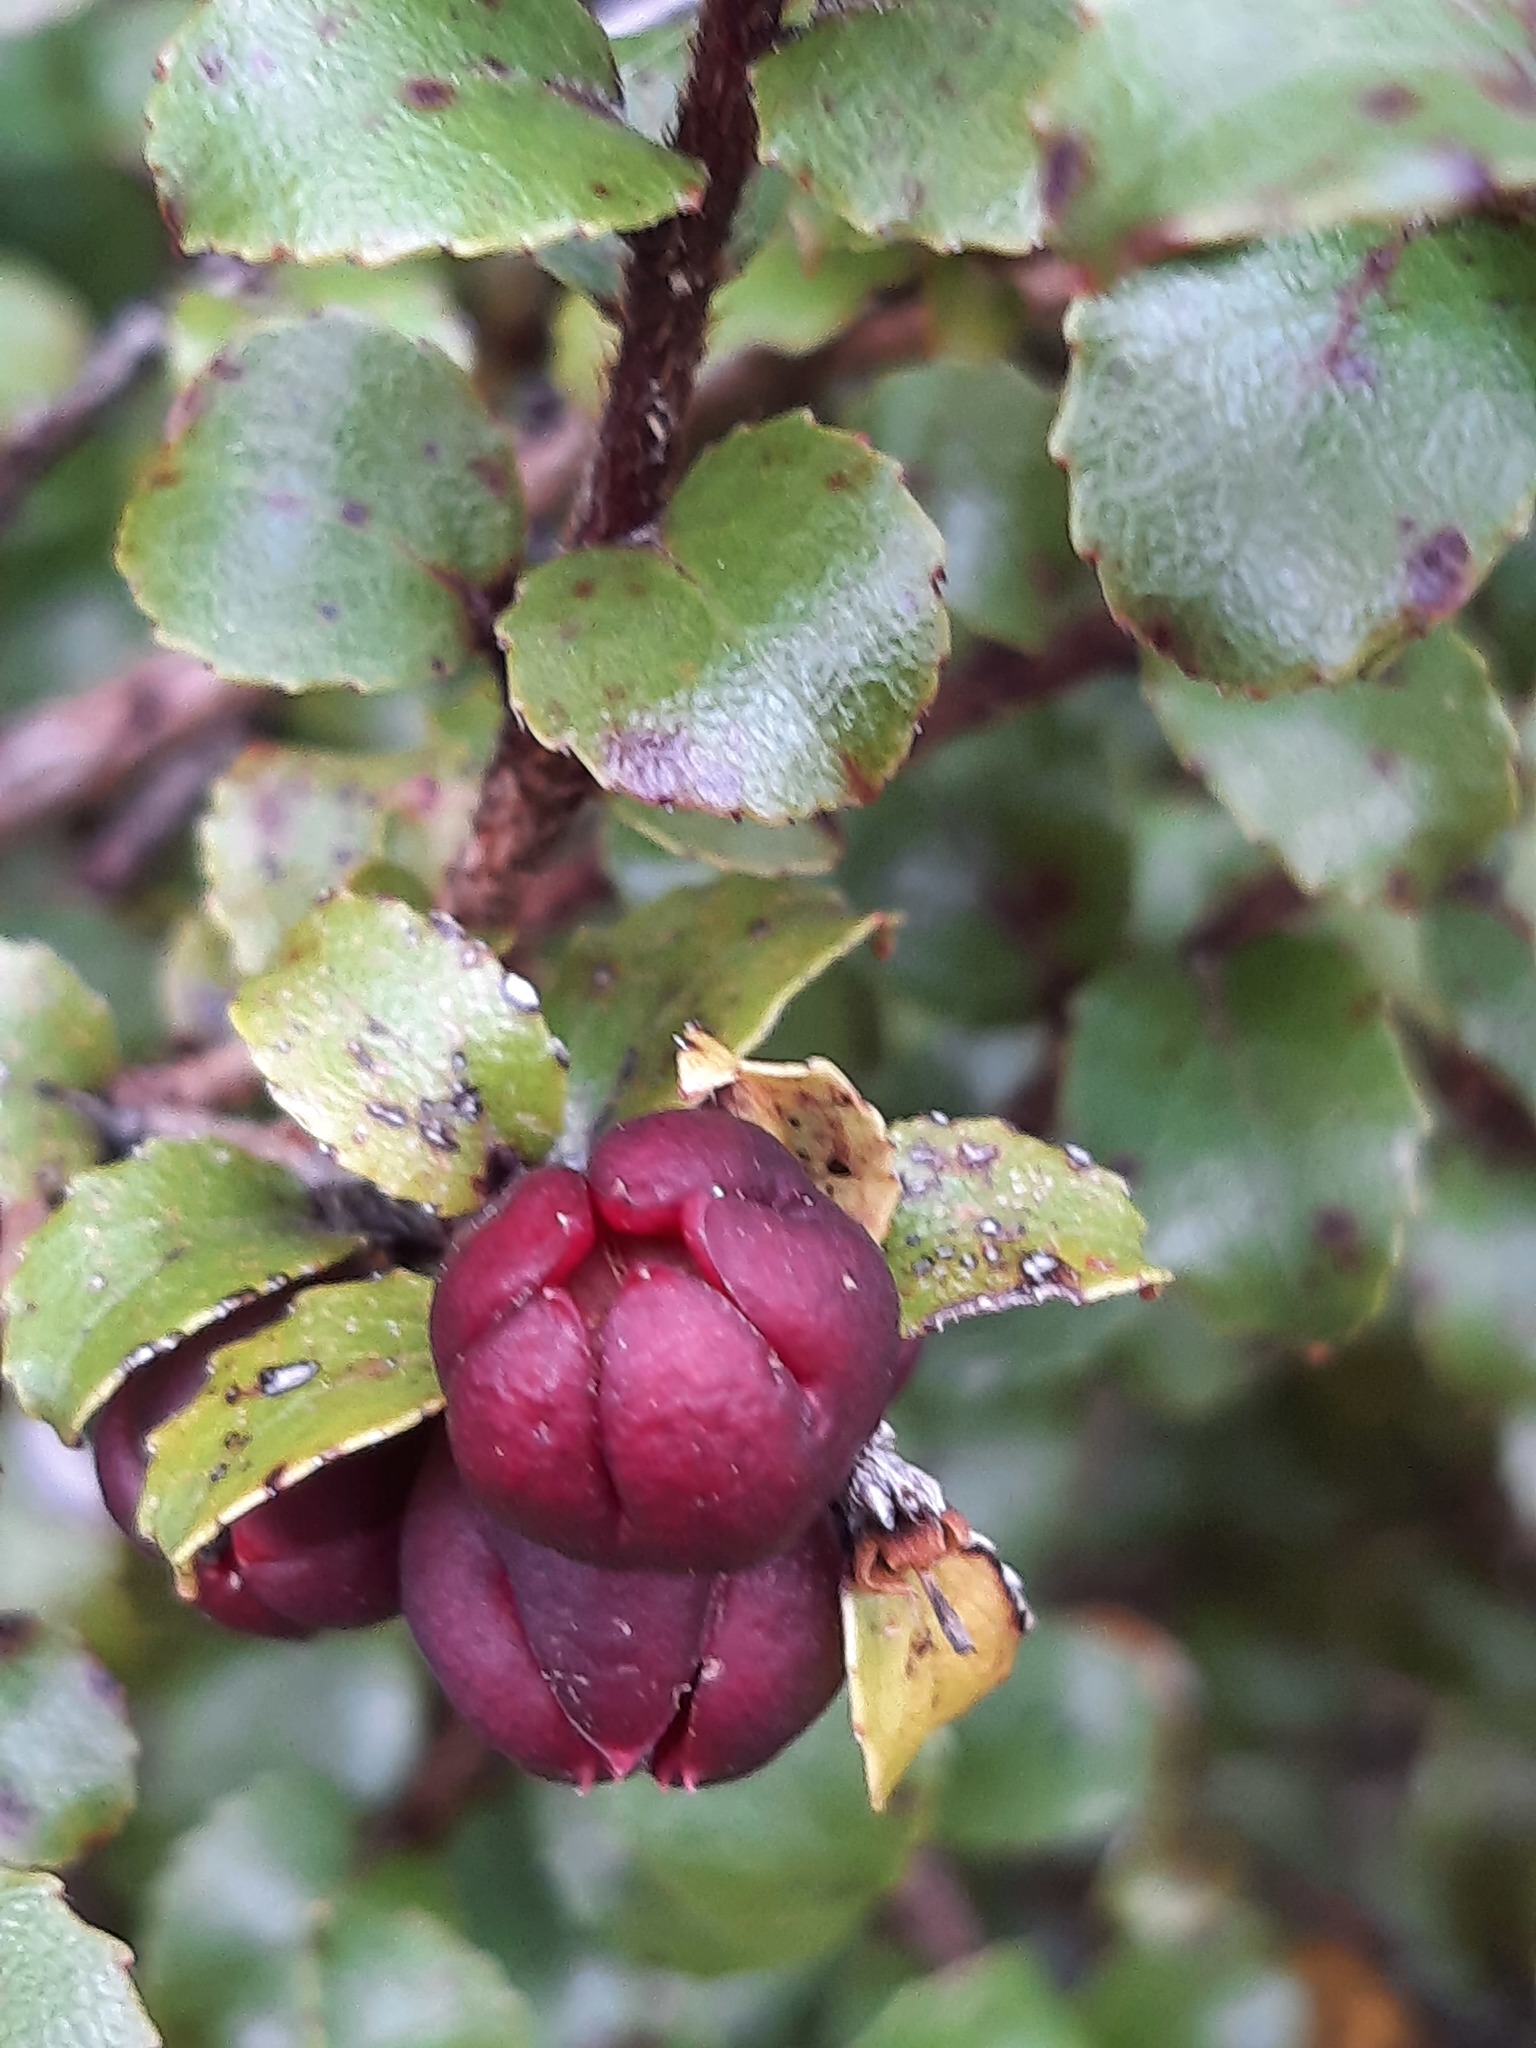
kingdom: Plantae
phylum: Tracheophyta
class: Magnoliopsida
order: Ericales
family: Ericaceae
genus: Gaultheria
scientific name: Gaultheria antipoda
